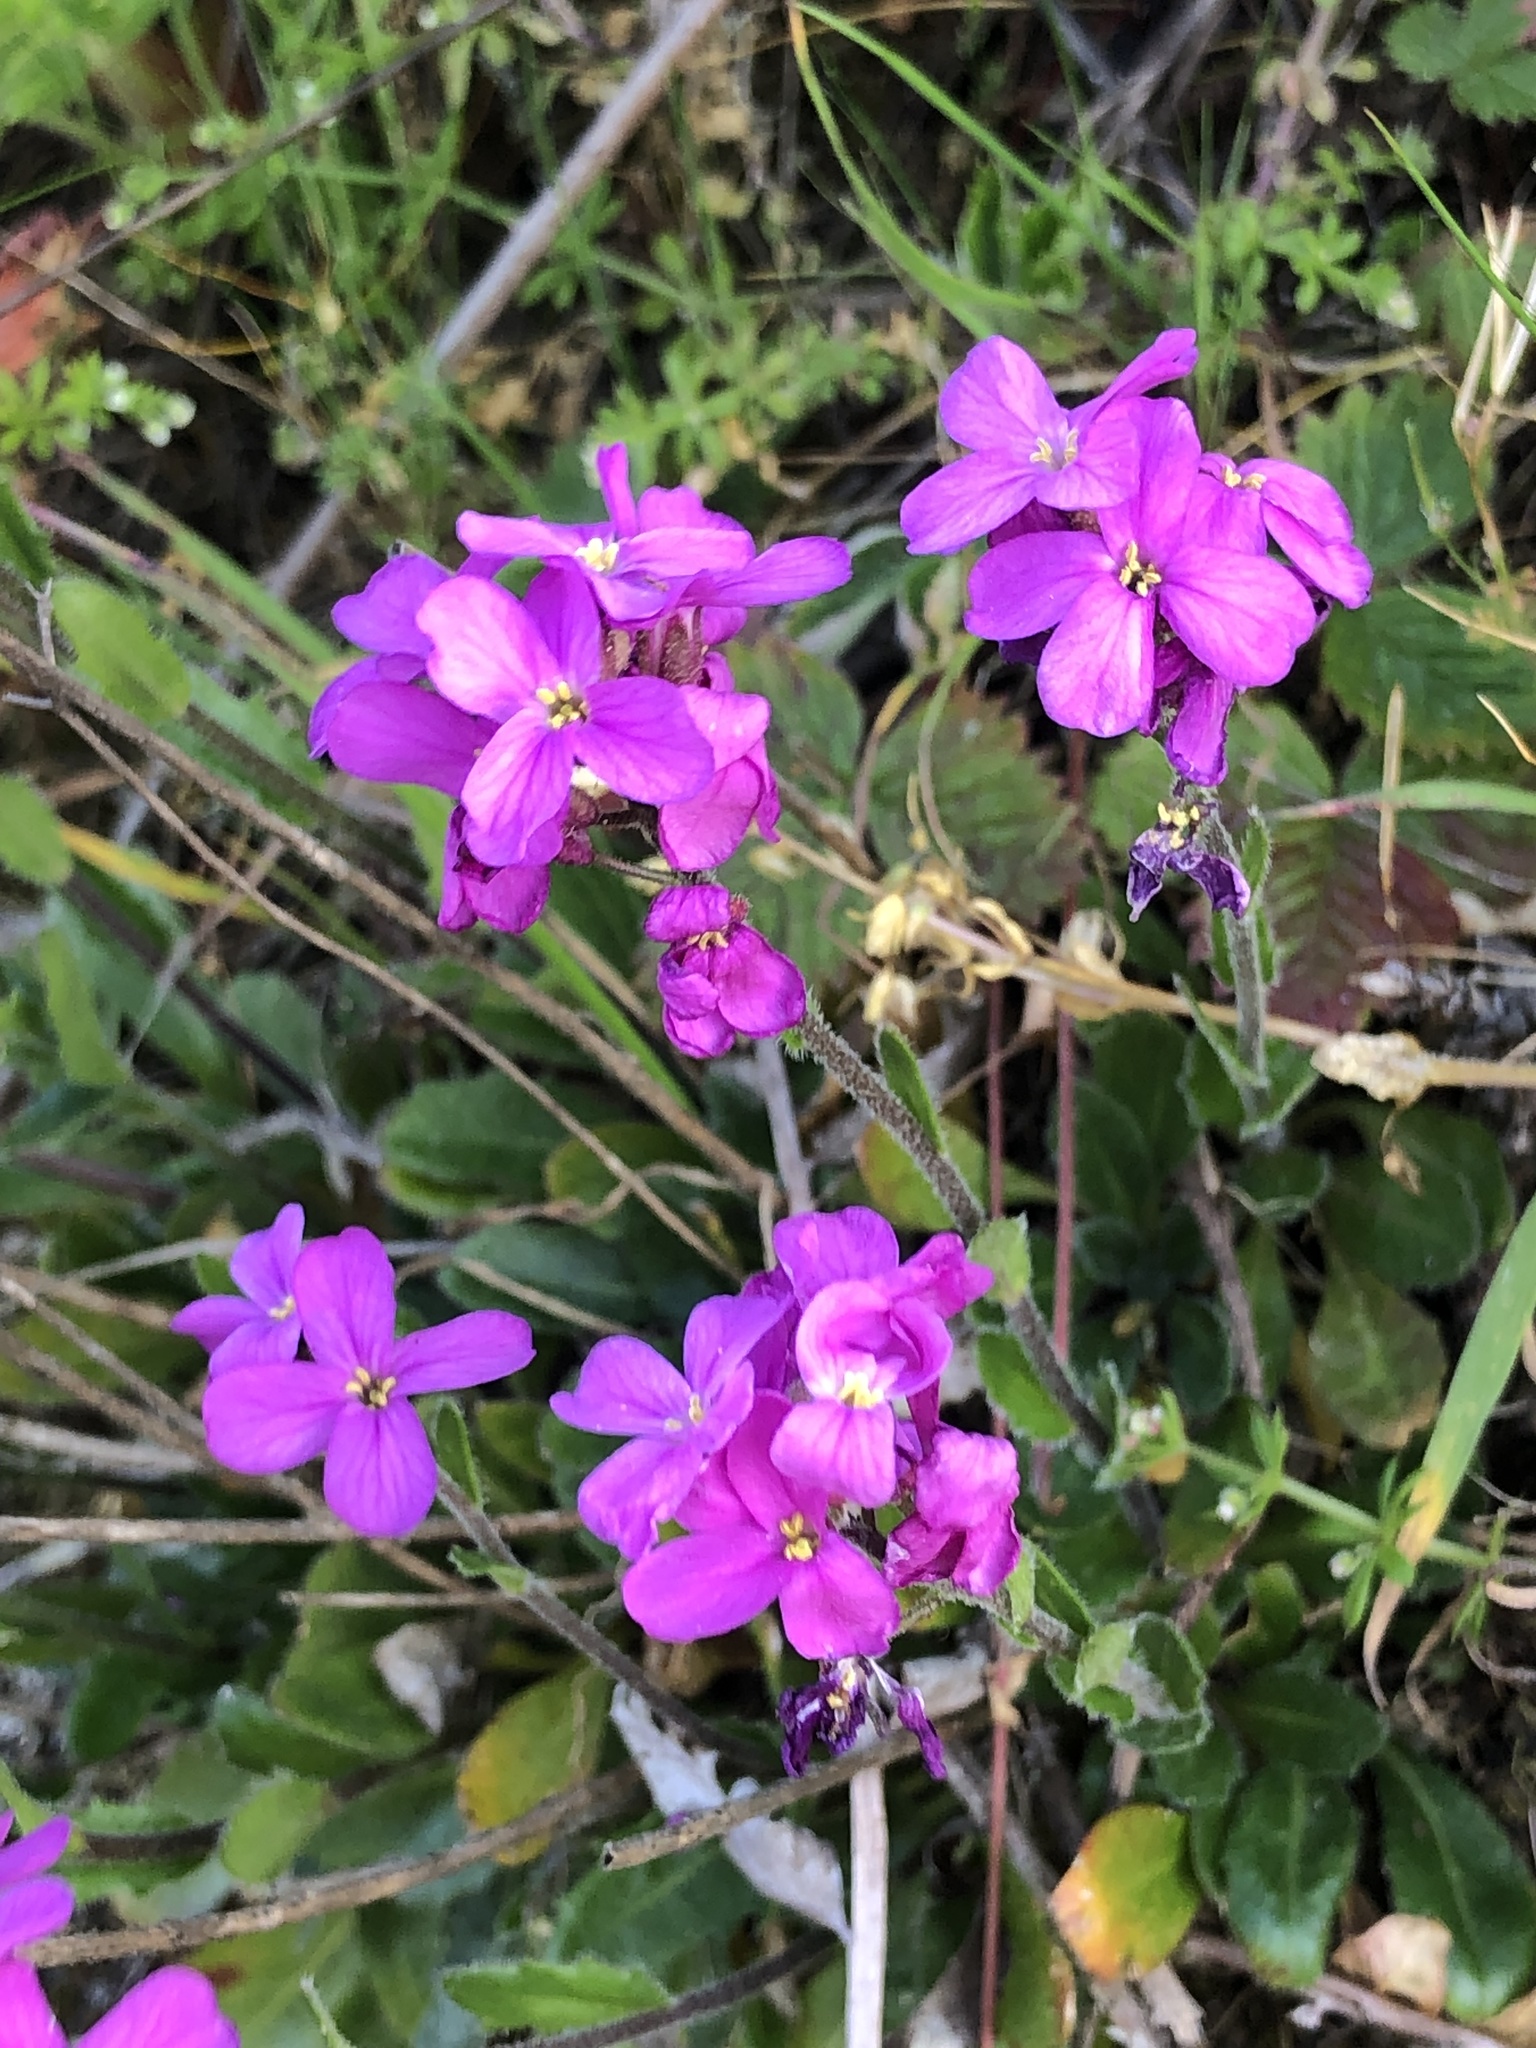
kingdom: Plantae
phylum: Tracheophyta
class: Magnoliopsida
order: Brassicales
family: Brassicaceae
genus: Arabis
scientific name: Arabis blepharophylla
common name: Rose rockcress
